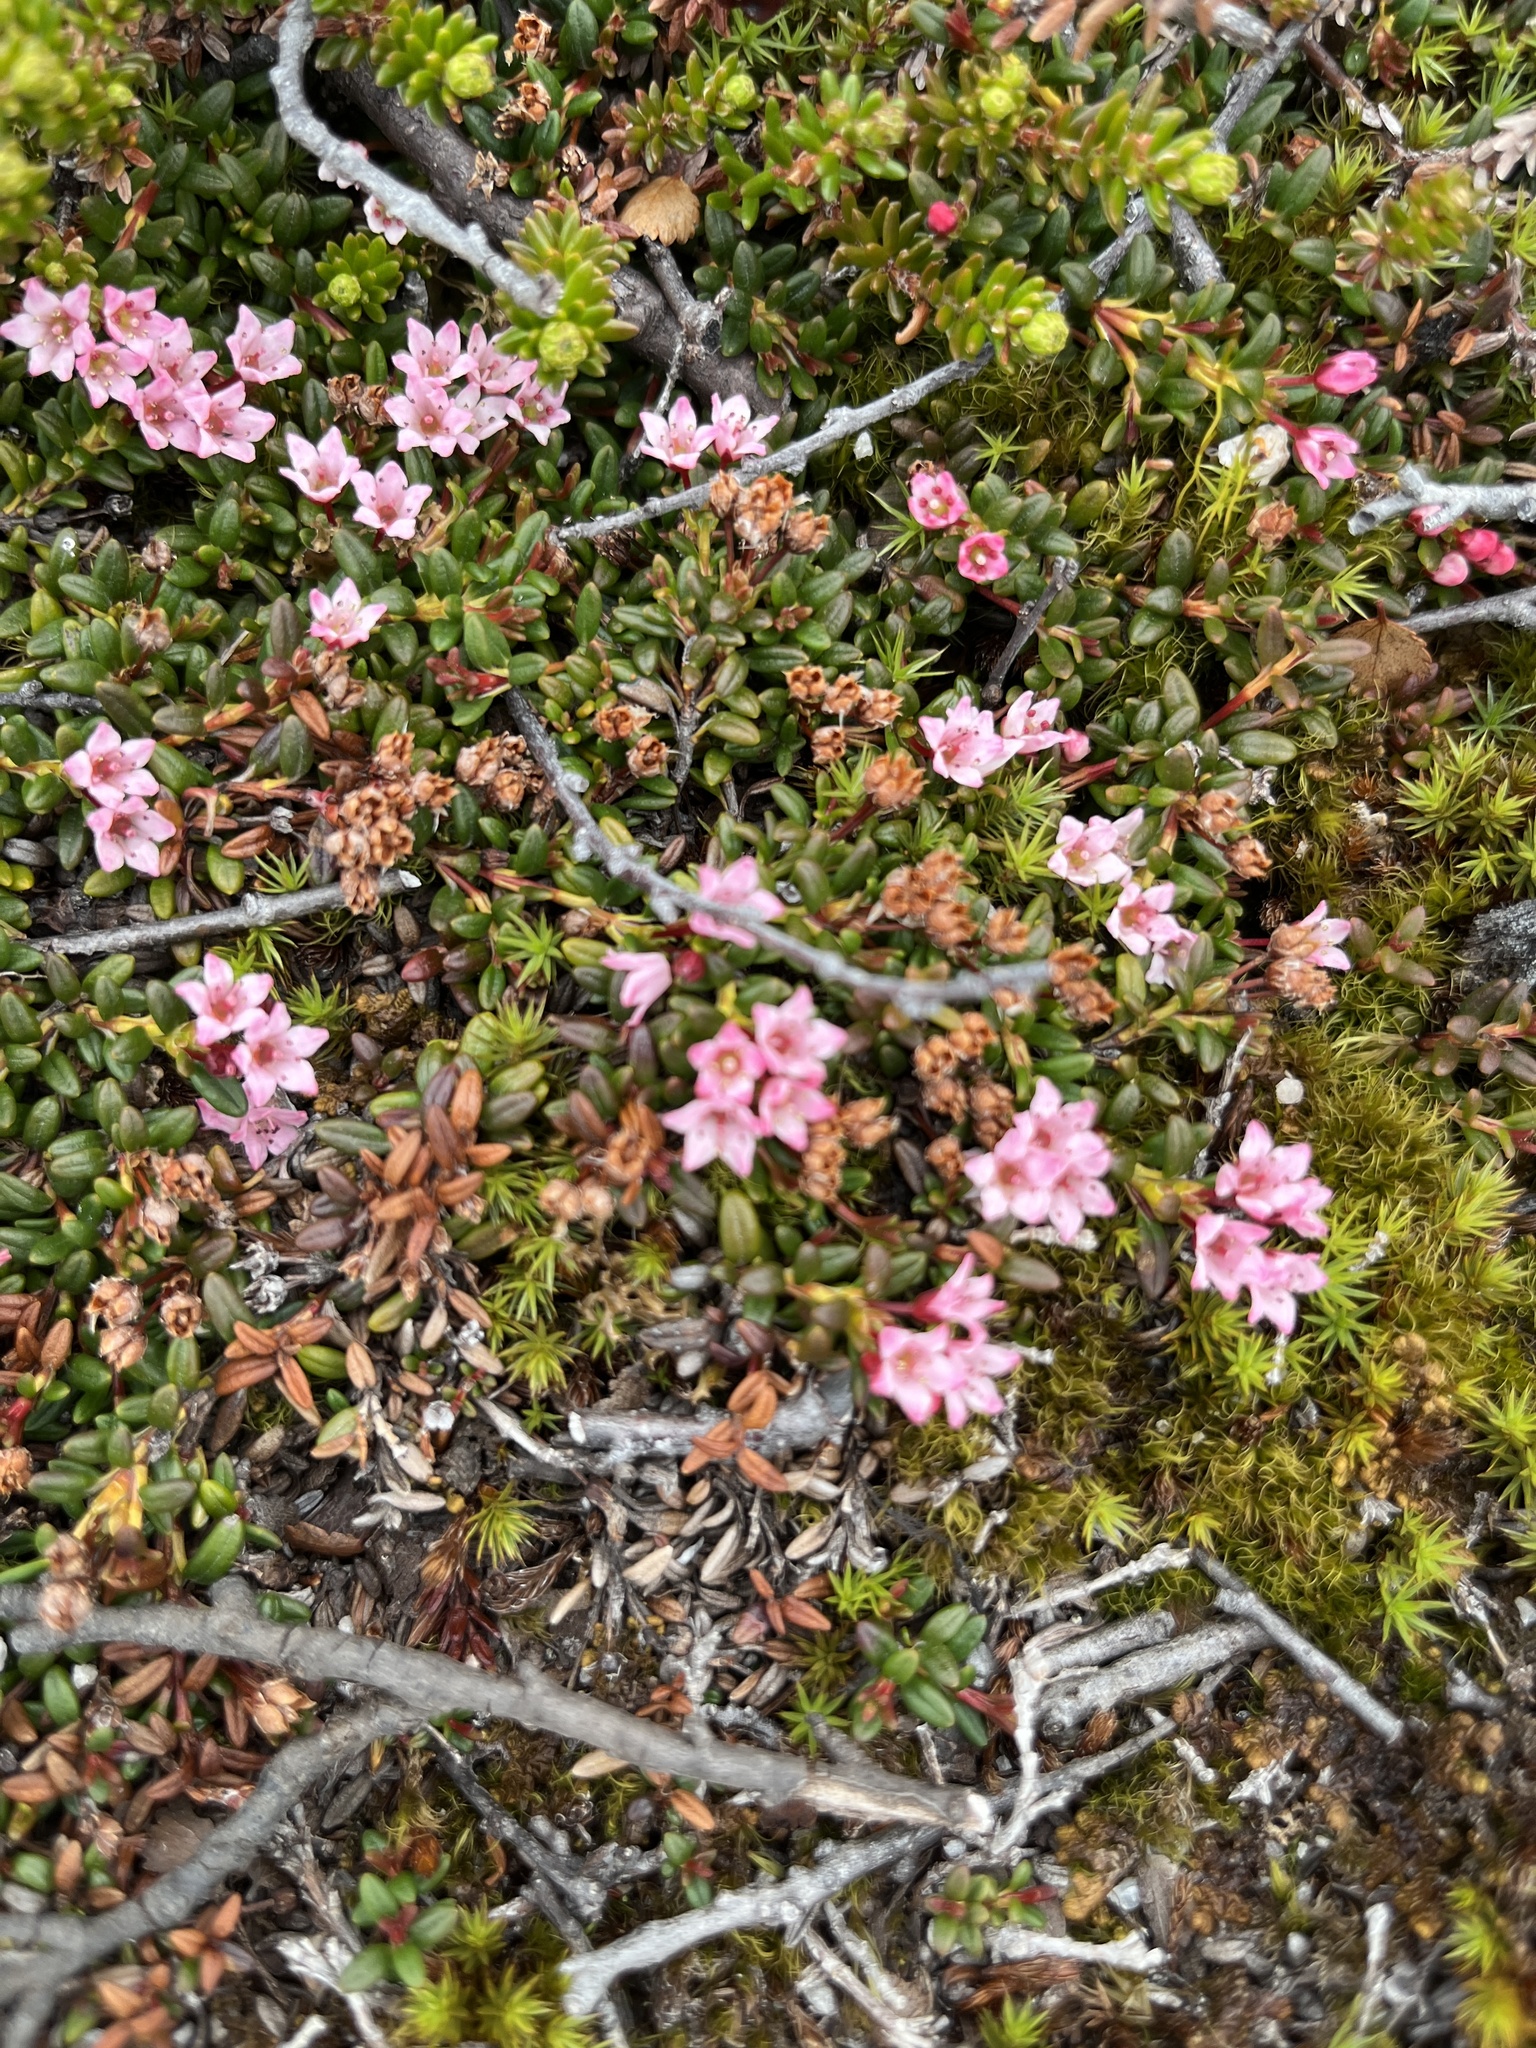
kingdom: Plantae
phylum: Tracheophyta
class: Magnoliopsida
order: Ericales
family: Ericaceae
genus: Kalmia
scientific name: Kalmia procumbens
